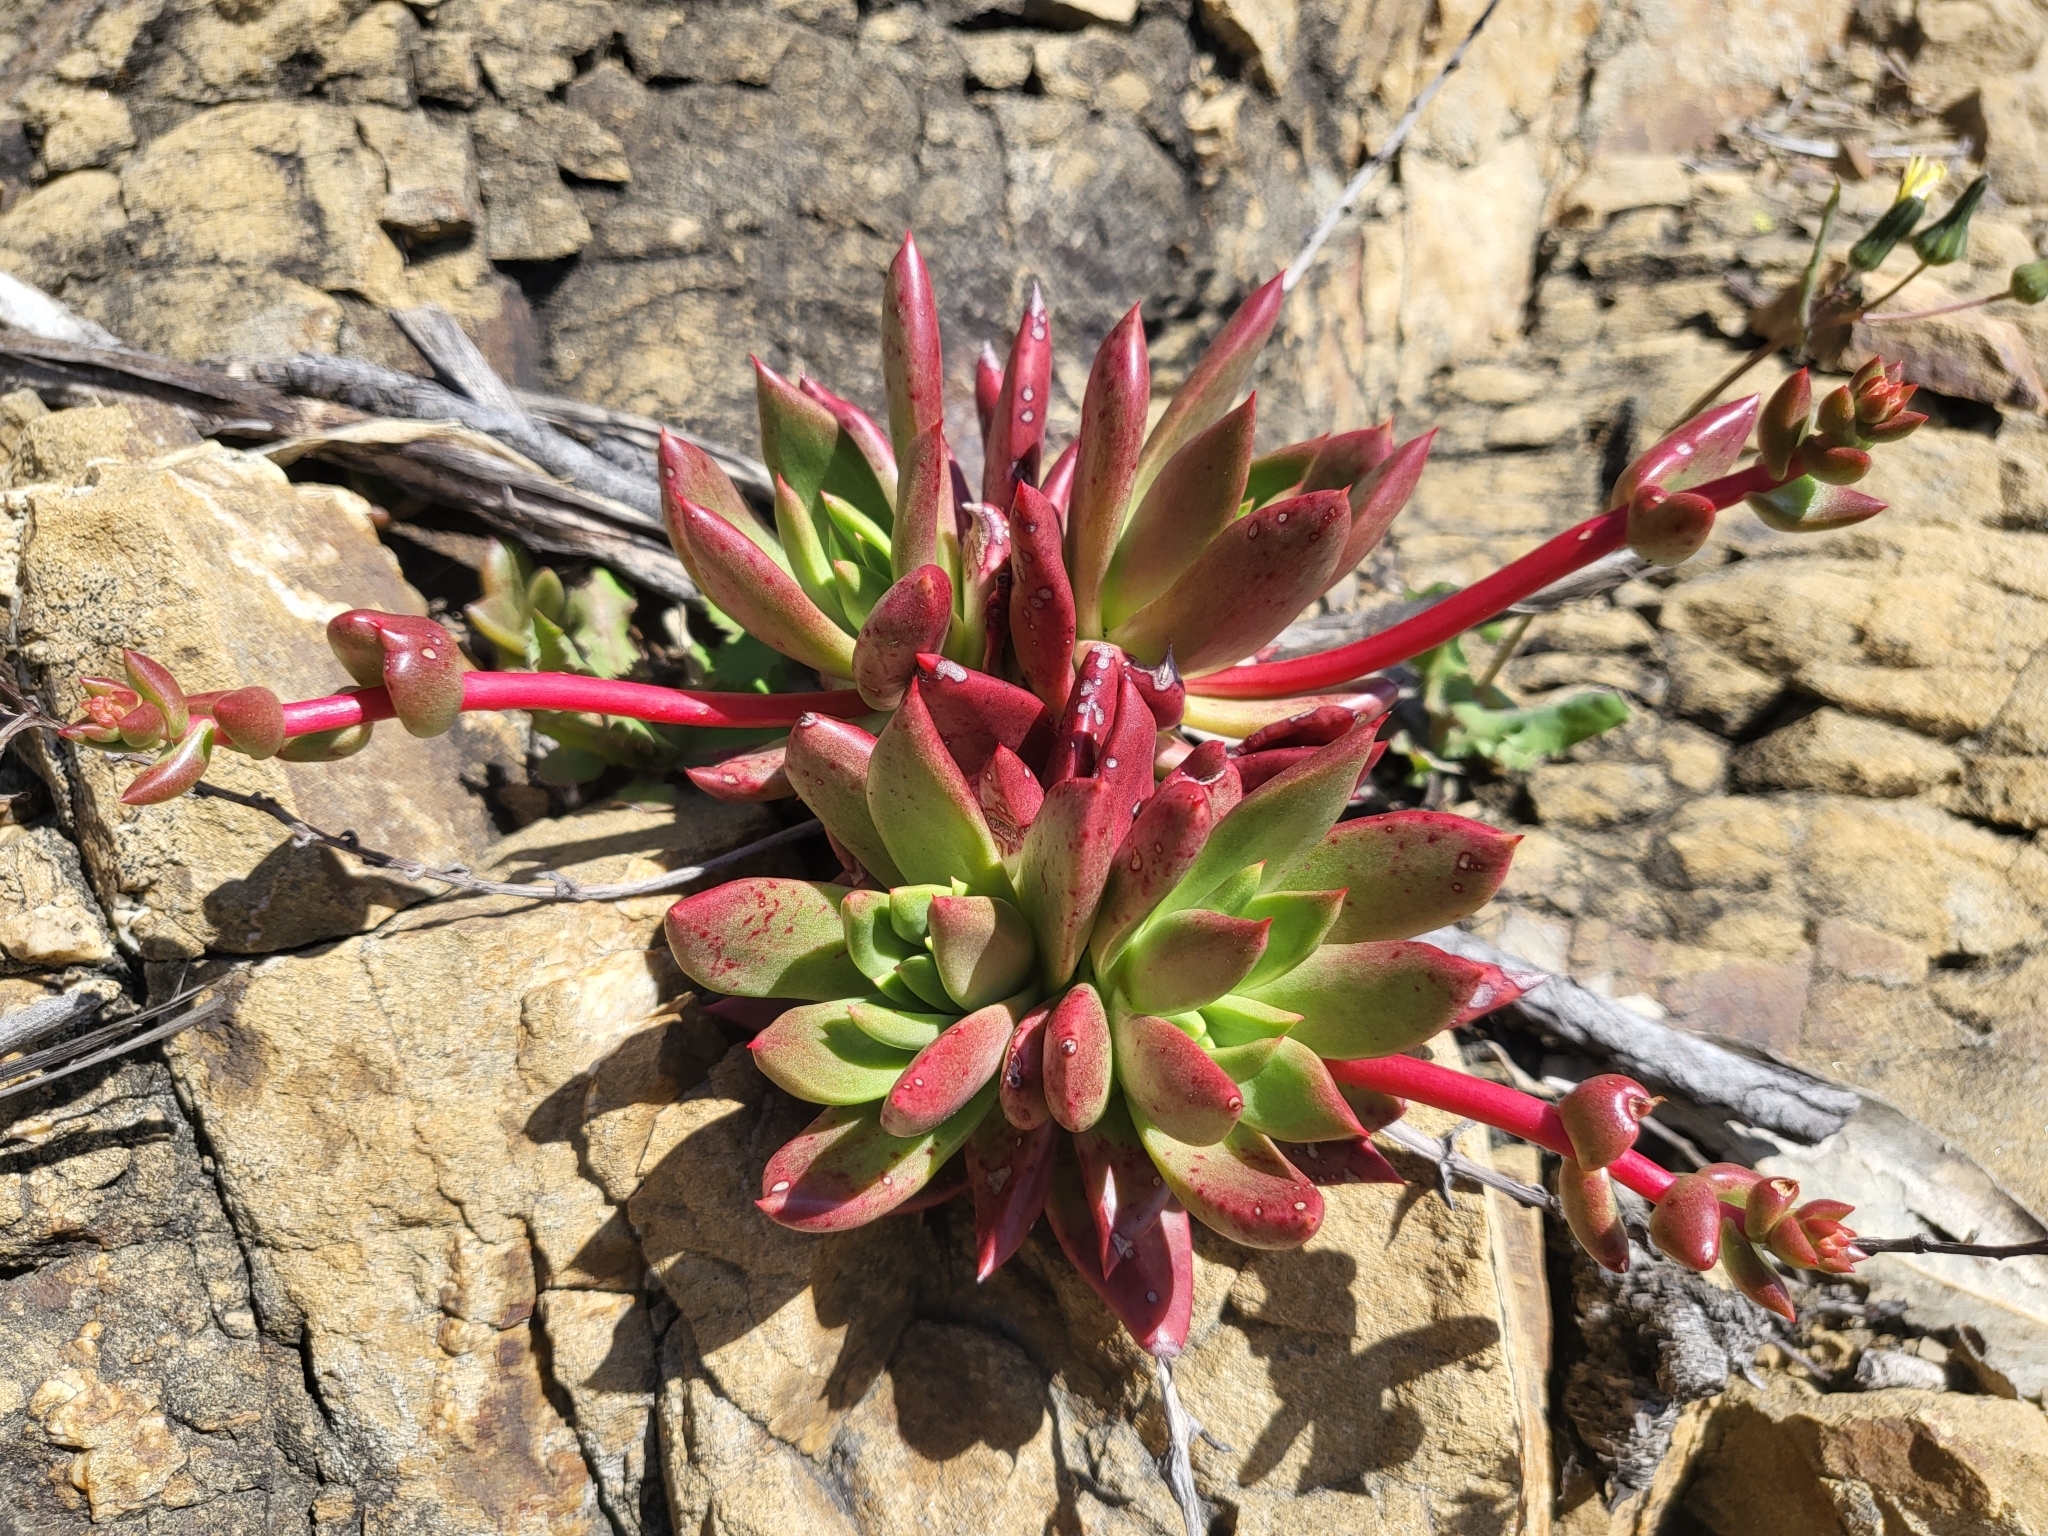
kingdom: Plantae
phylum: Tracheophyta
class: Magnoliopsida
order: Saxifragales
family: Crassulaceae
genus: Dudleya
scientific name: Dudleya farinosa
